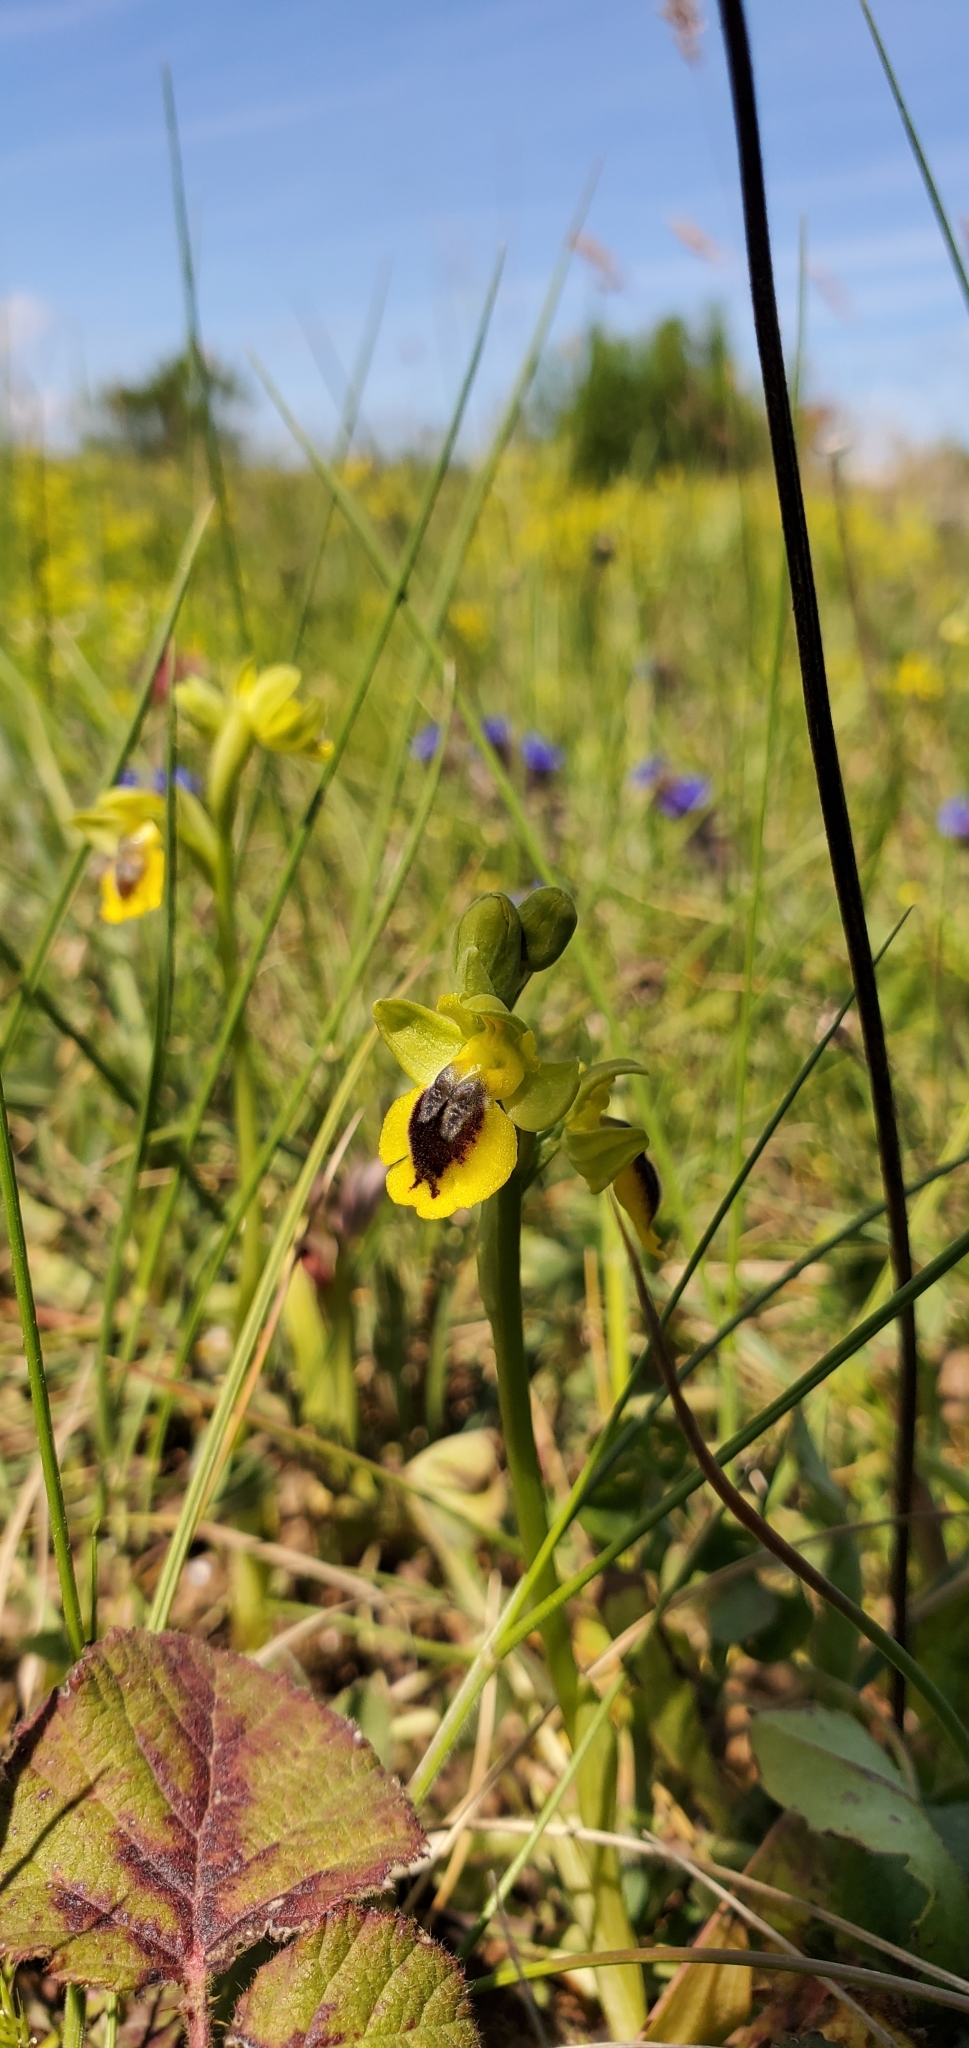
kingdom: Plantae
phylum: Tracheophyta
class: Liliopsida
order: Asparagales
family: Orchidaceae
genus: Ophrys
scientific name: Ophrys lutea
